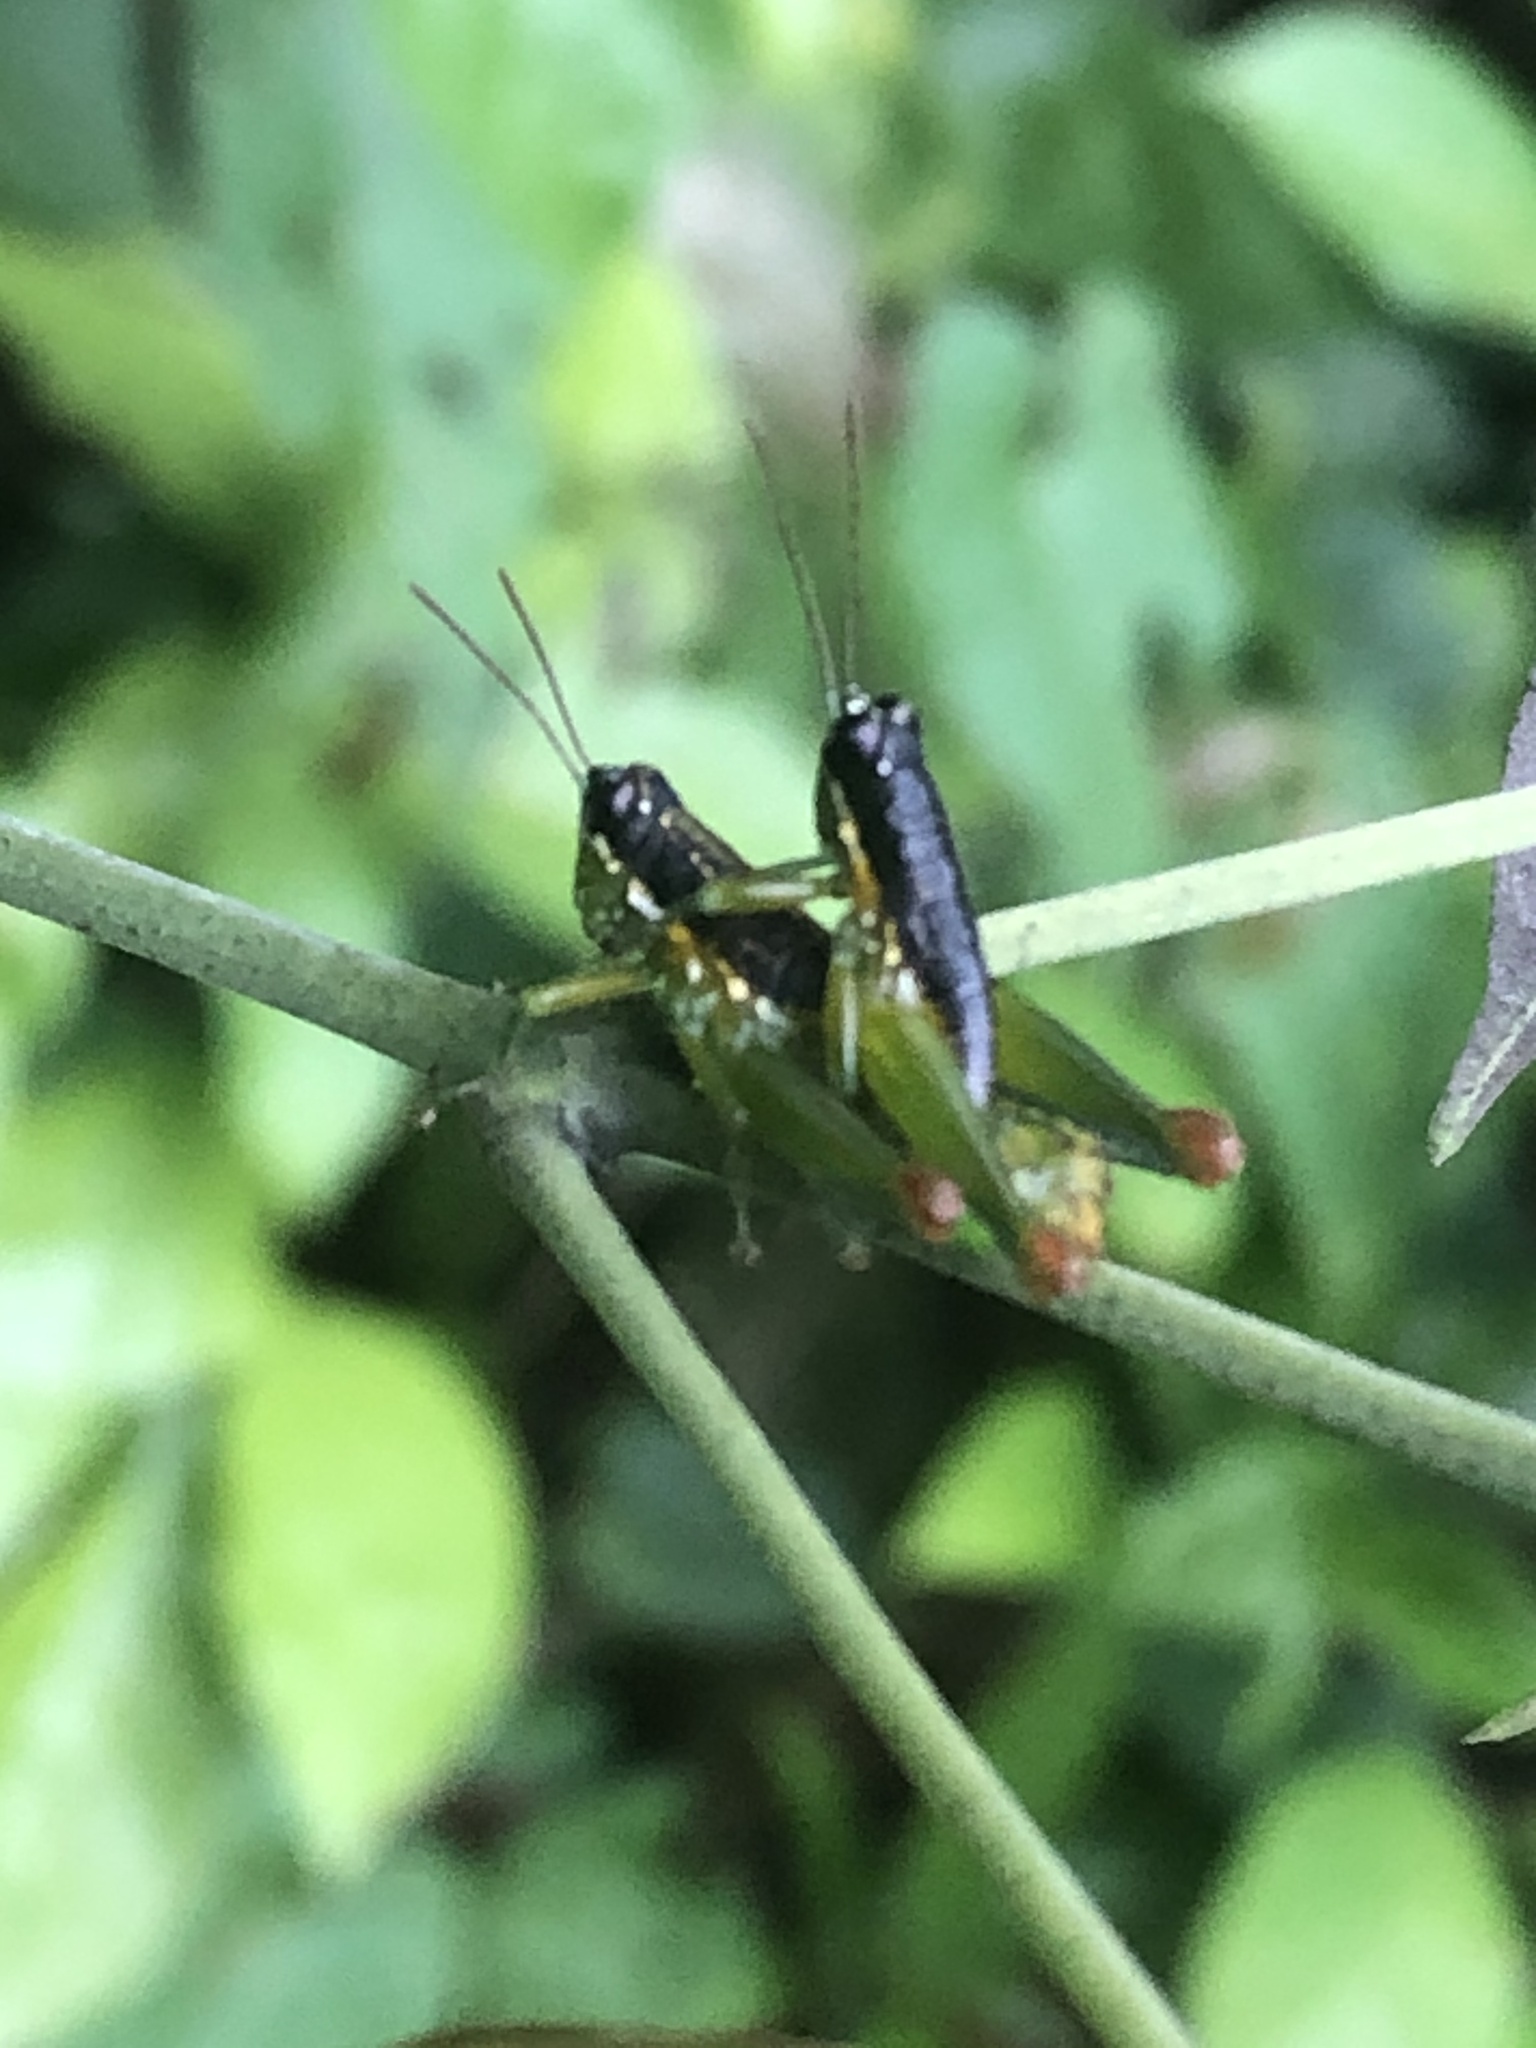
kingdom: Animalia
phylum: Arthropoda
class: Insecta
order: Orthoptera
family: Acrididae
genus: Liebermannacris
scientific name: Liebermannacris dorsualis
